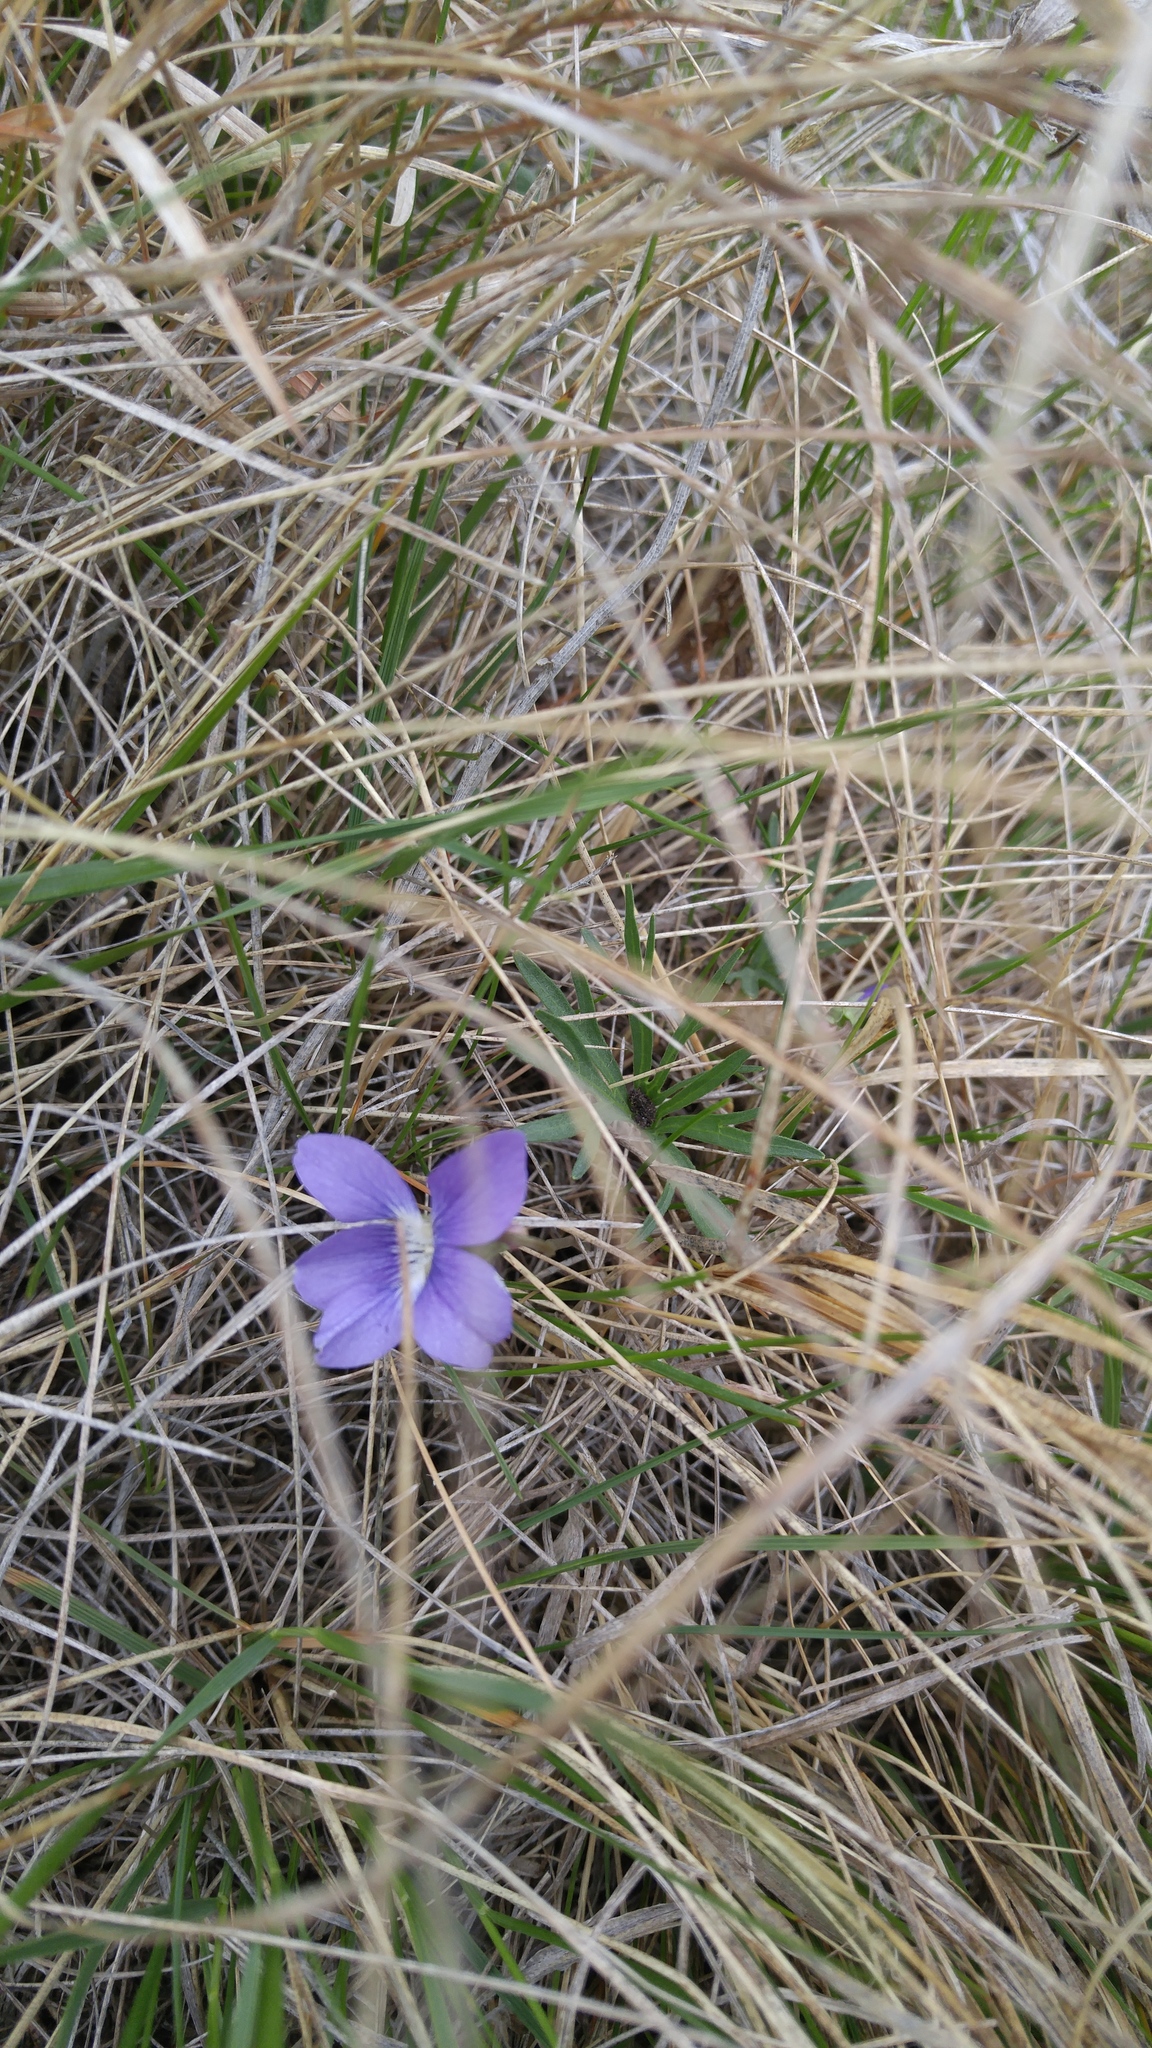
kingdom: Plantae
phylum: Tracheophyta
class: Magnoliopsida
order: Malpighiales
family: Violaceae
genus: Viola
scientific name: Viola pedatifida
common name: Prairie violet
